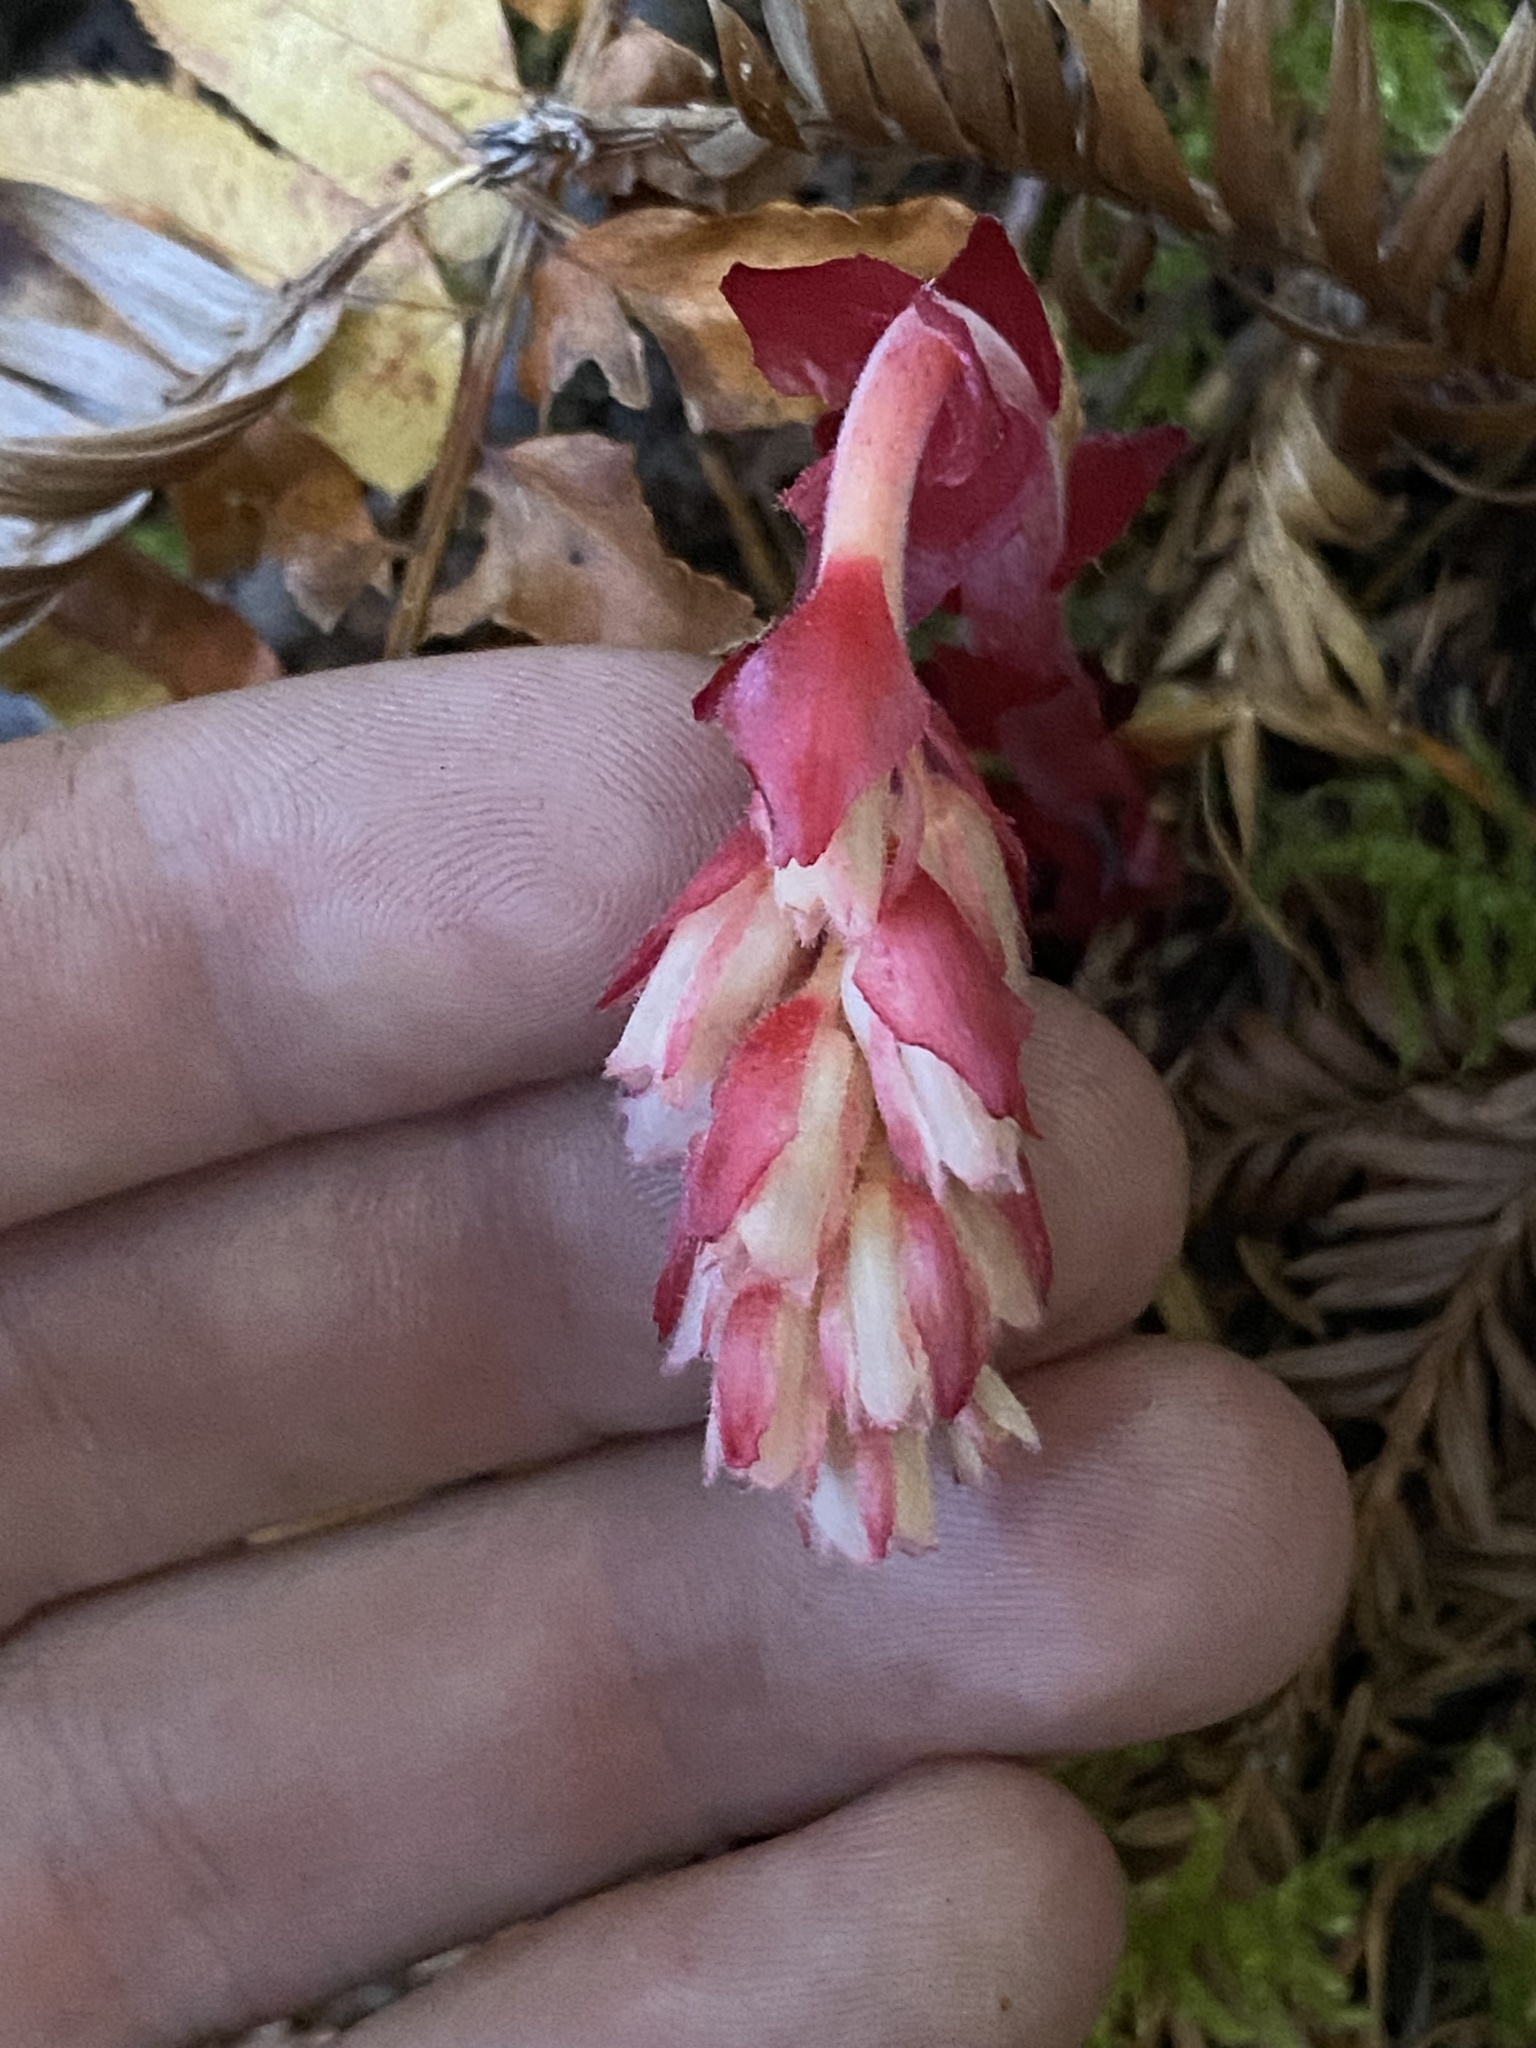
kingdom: Plantae
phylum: Tracheophyta
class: Magnoliopsida
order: Ericales
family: Ericaceae
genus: Hypopitys
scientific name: Hypopitys monotropa
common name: Yellow bird's-nest
